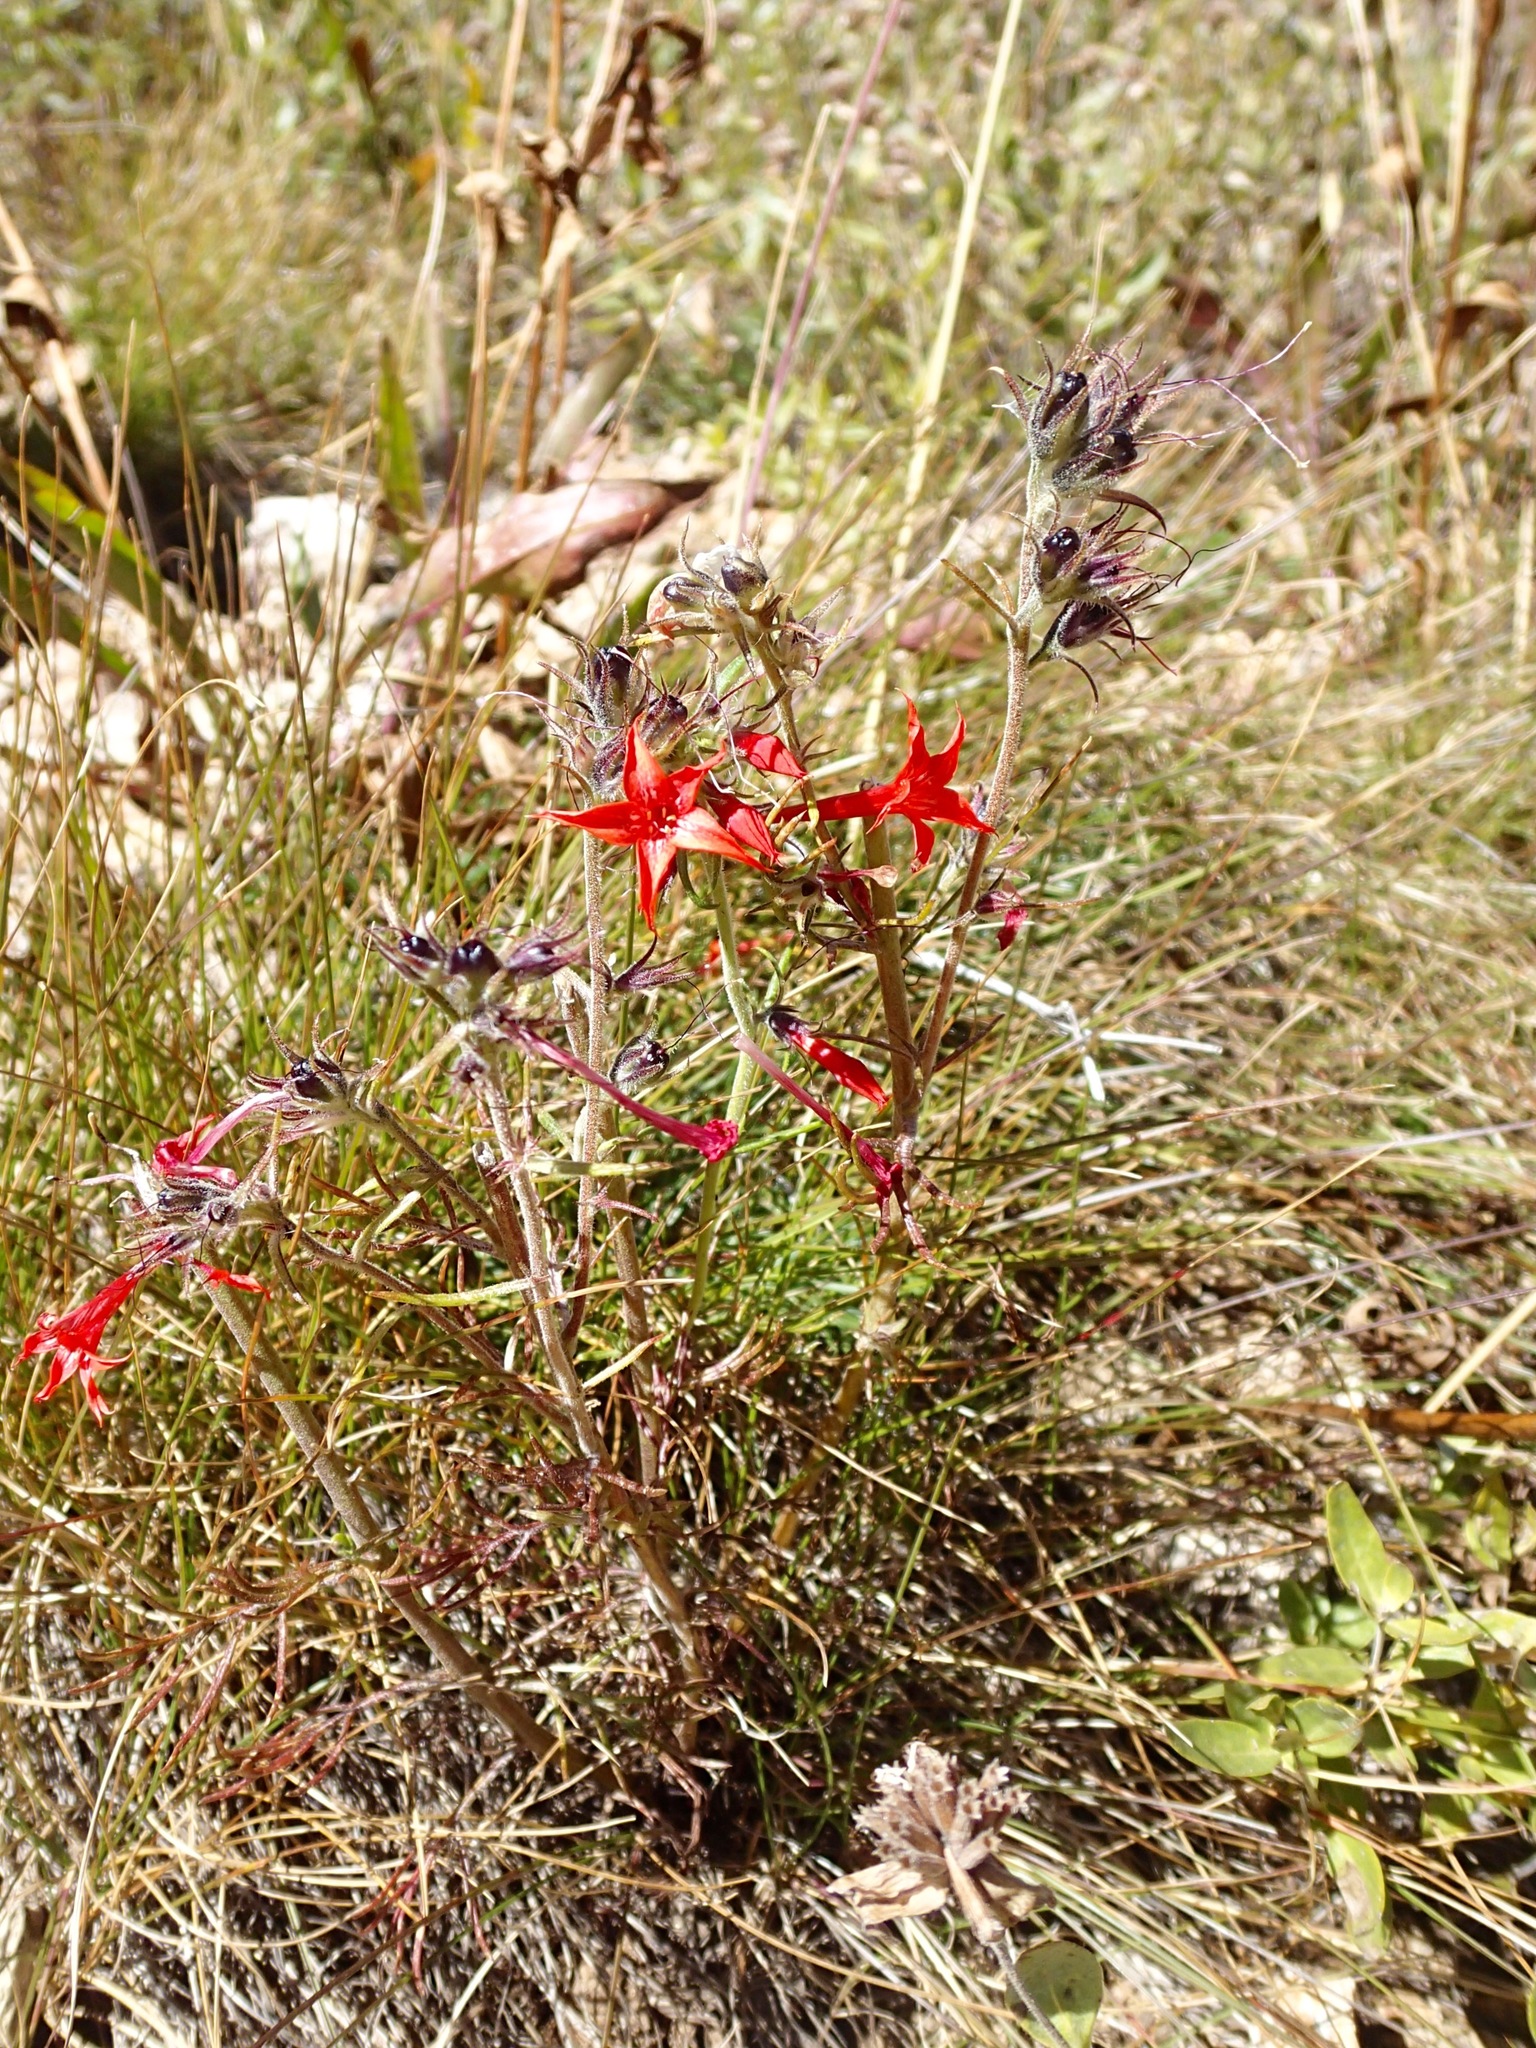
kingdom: Plantae
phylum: Tracheophyta
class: Magnoliopsida
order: Ericales
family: Polemoniaceae
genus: Ipomopsis
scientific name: Ipomopsis aggregata
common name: Scarlet gilia
